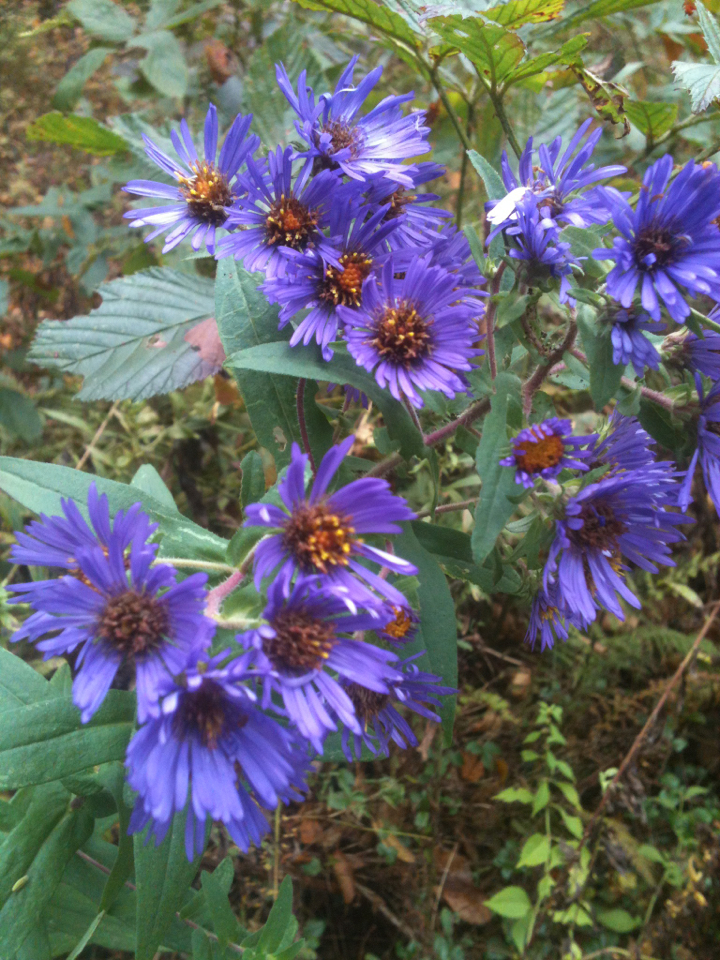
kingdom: Plantae
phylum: Tracheophyta
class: Magnoliopsida
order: Asterales
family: Asteraceae
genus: Symphyotrichum
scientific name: Symphyotrichum novae-angliae
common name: Michaelmas daisy
